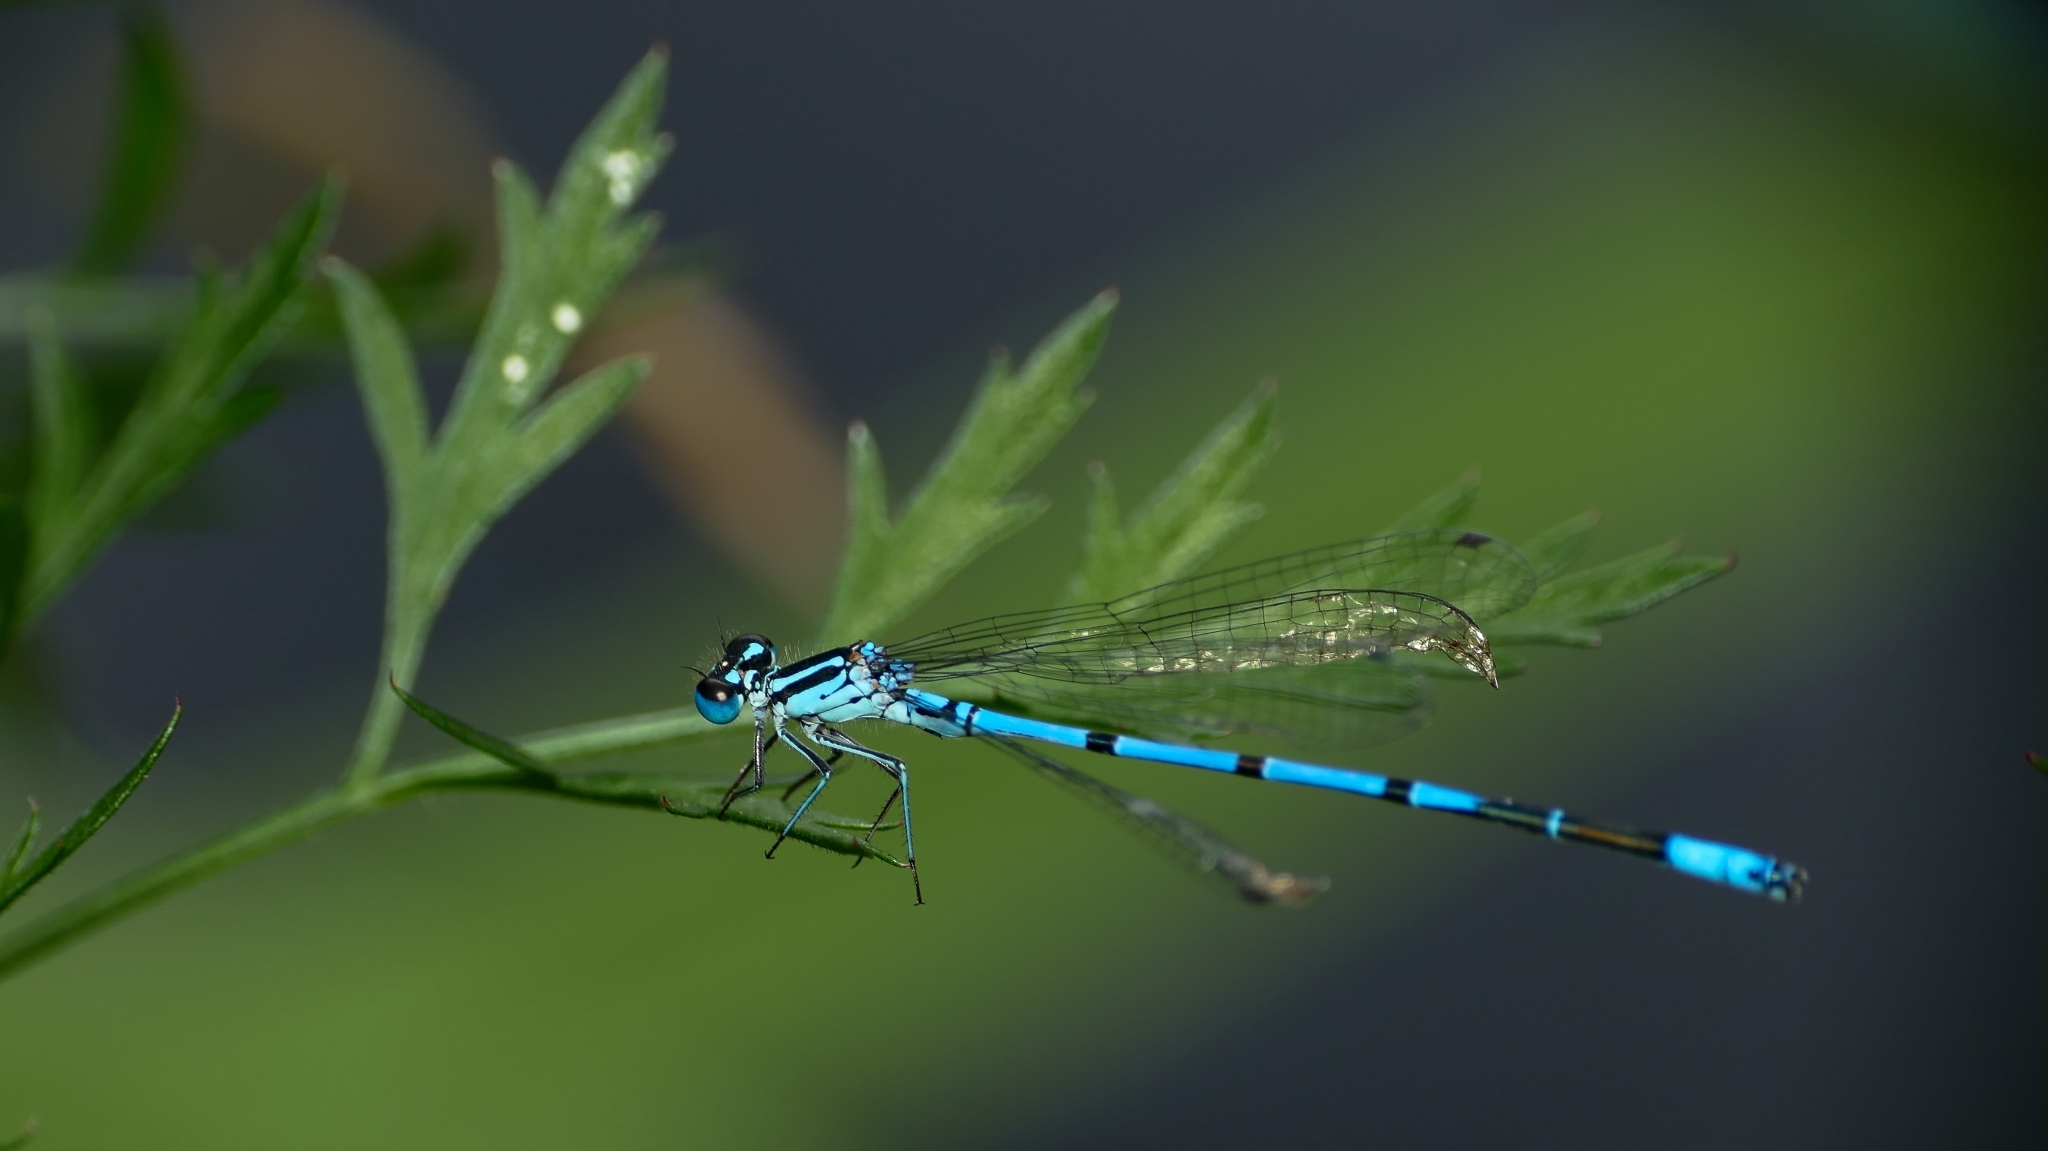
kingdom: Animalia
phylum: Arthropoda
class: Insecta
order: Odonata
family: Coenagrionidae
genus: Coenagrion
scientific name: Coenagrion puella
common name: Azure damselfly
